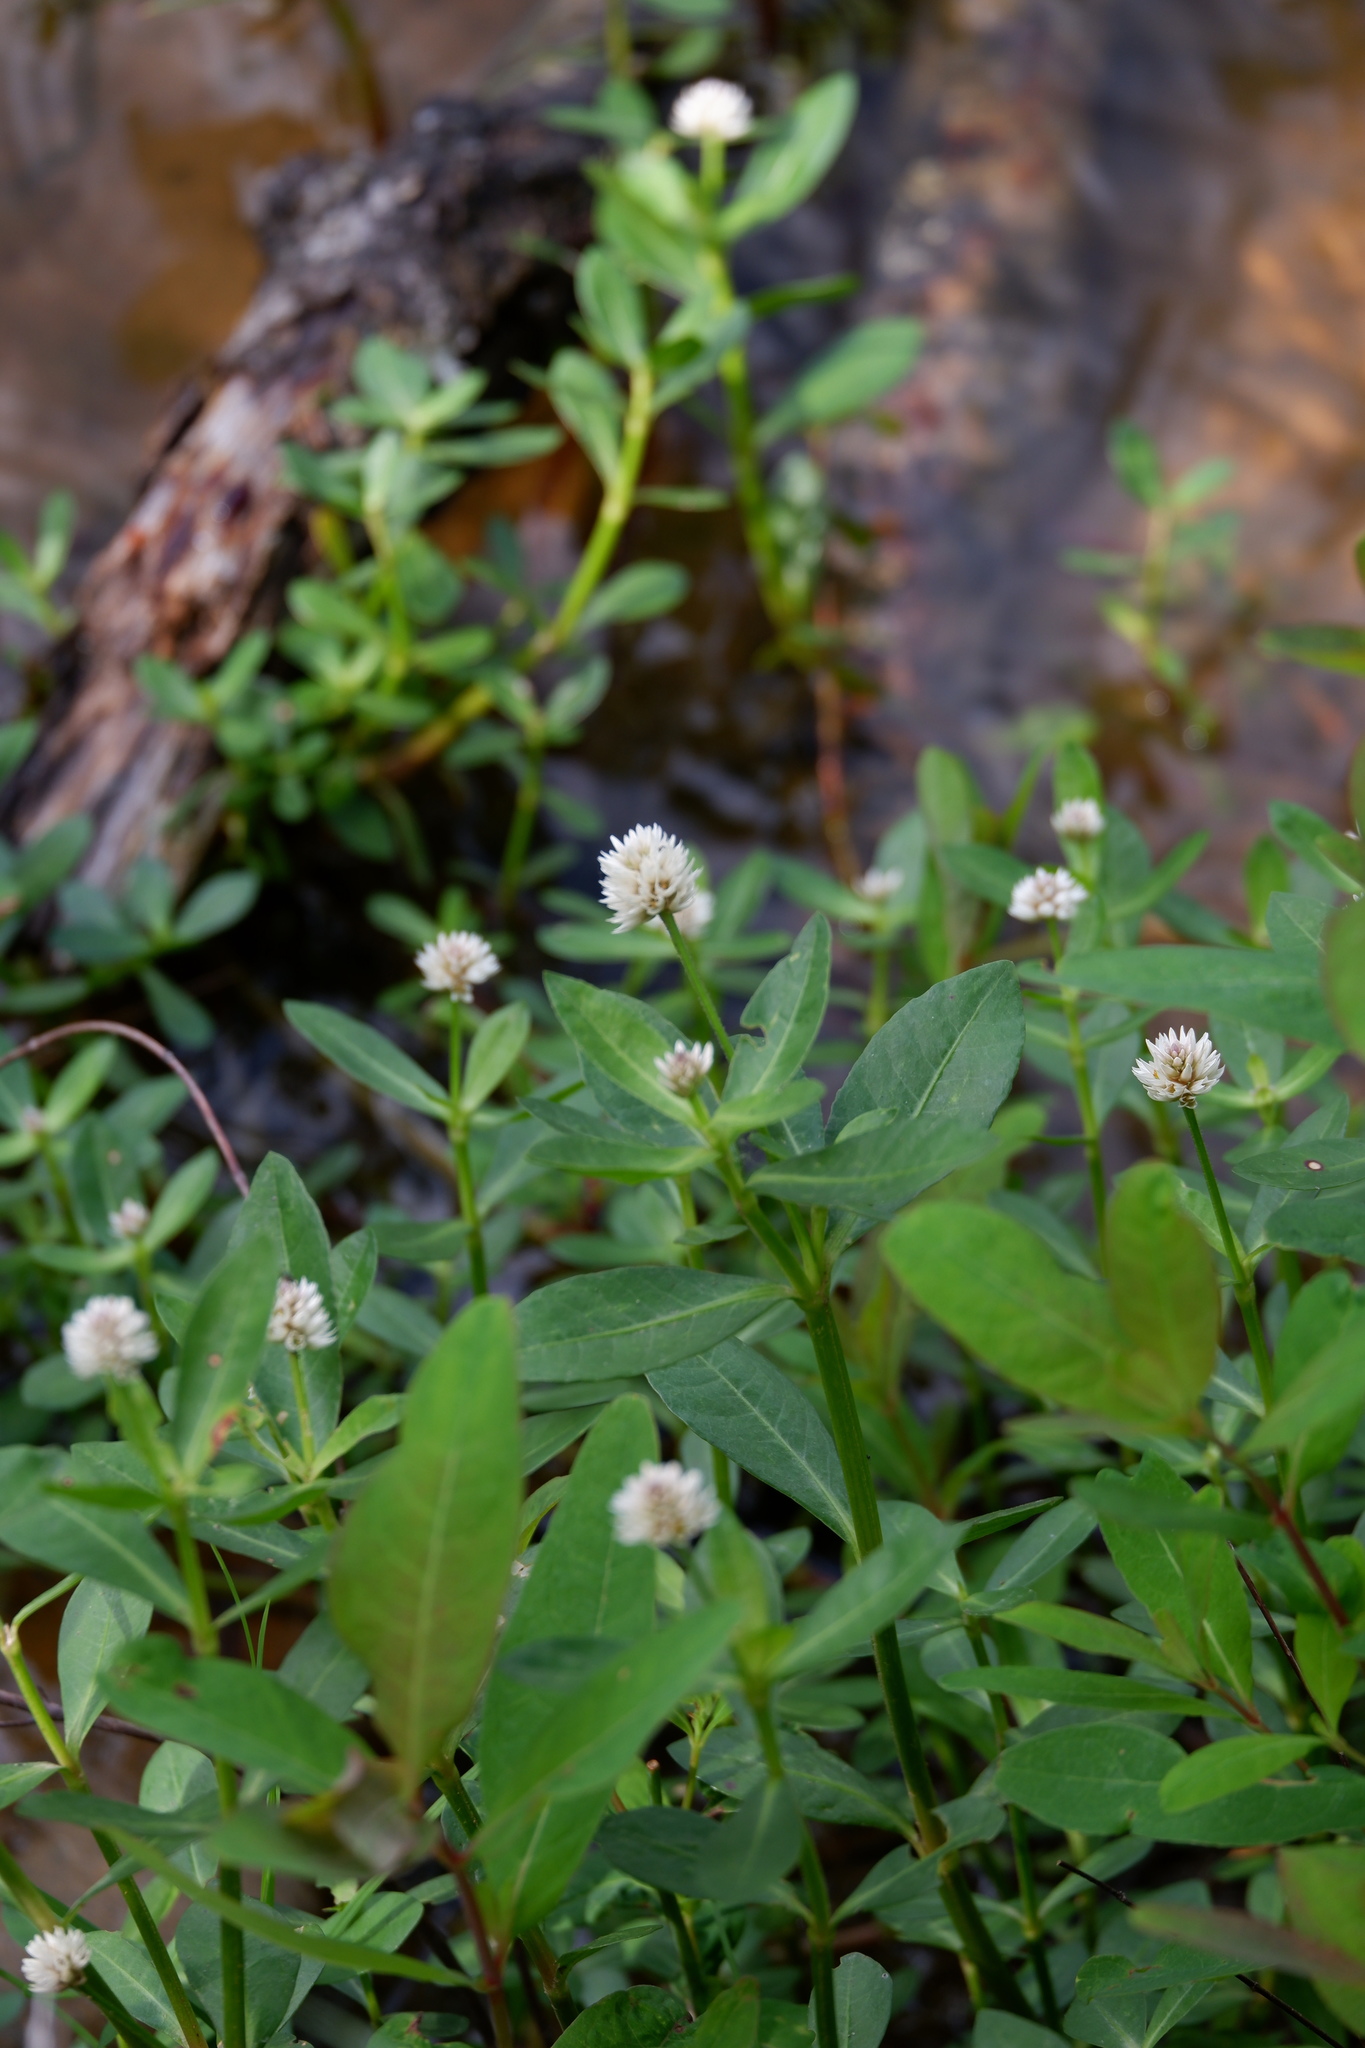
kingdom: Plantae
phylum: Tracheophyta
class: Magnoliopsida
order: Caryophyllales
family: Amaranthaceae
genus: Alternanthera
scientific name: Alternanthera philoxeroides
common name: Alligatorweed
